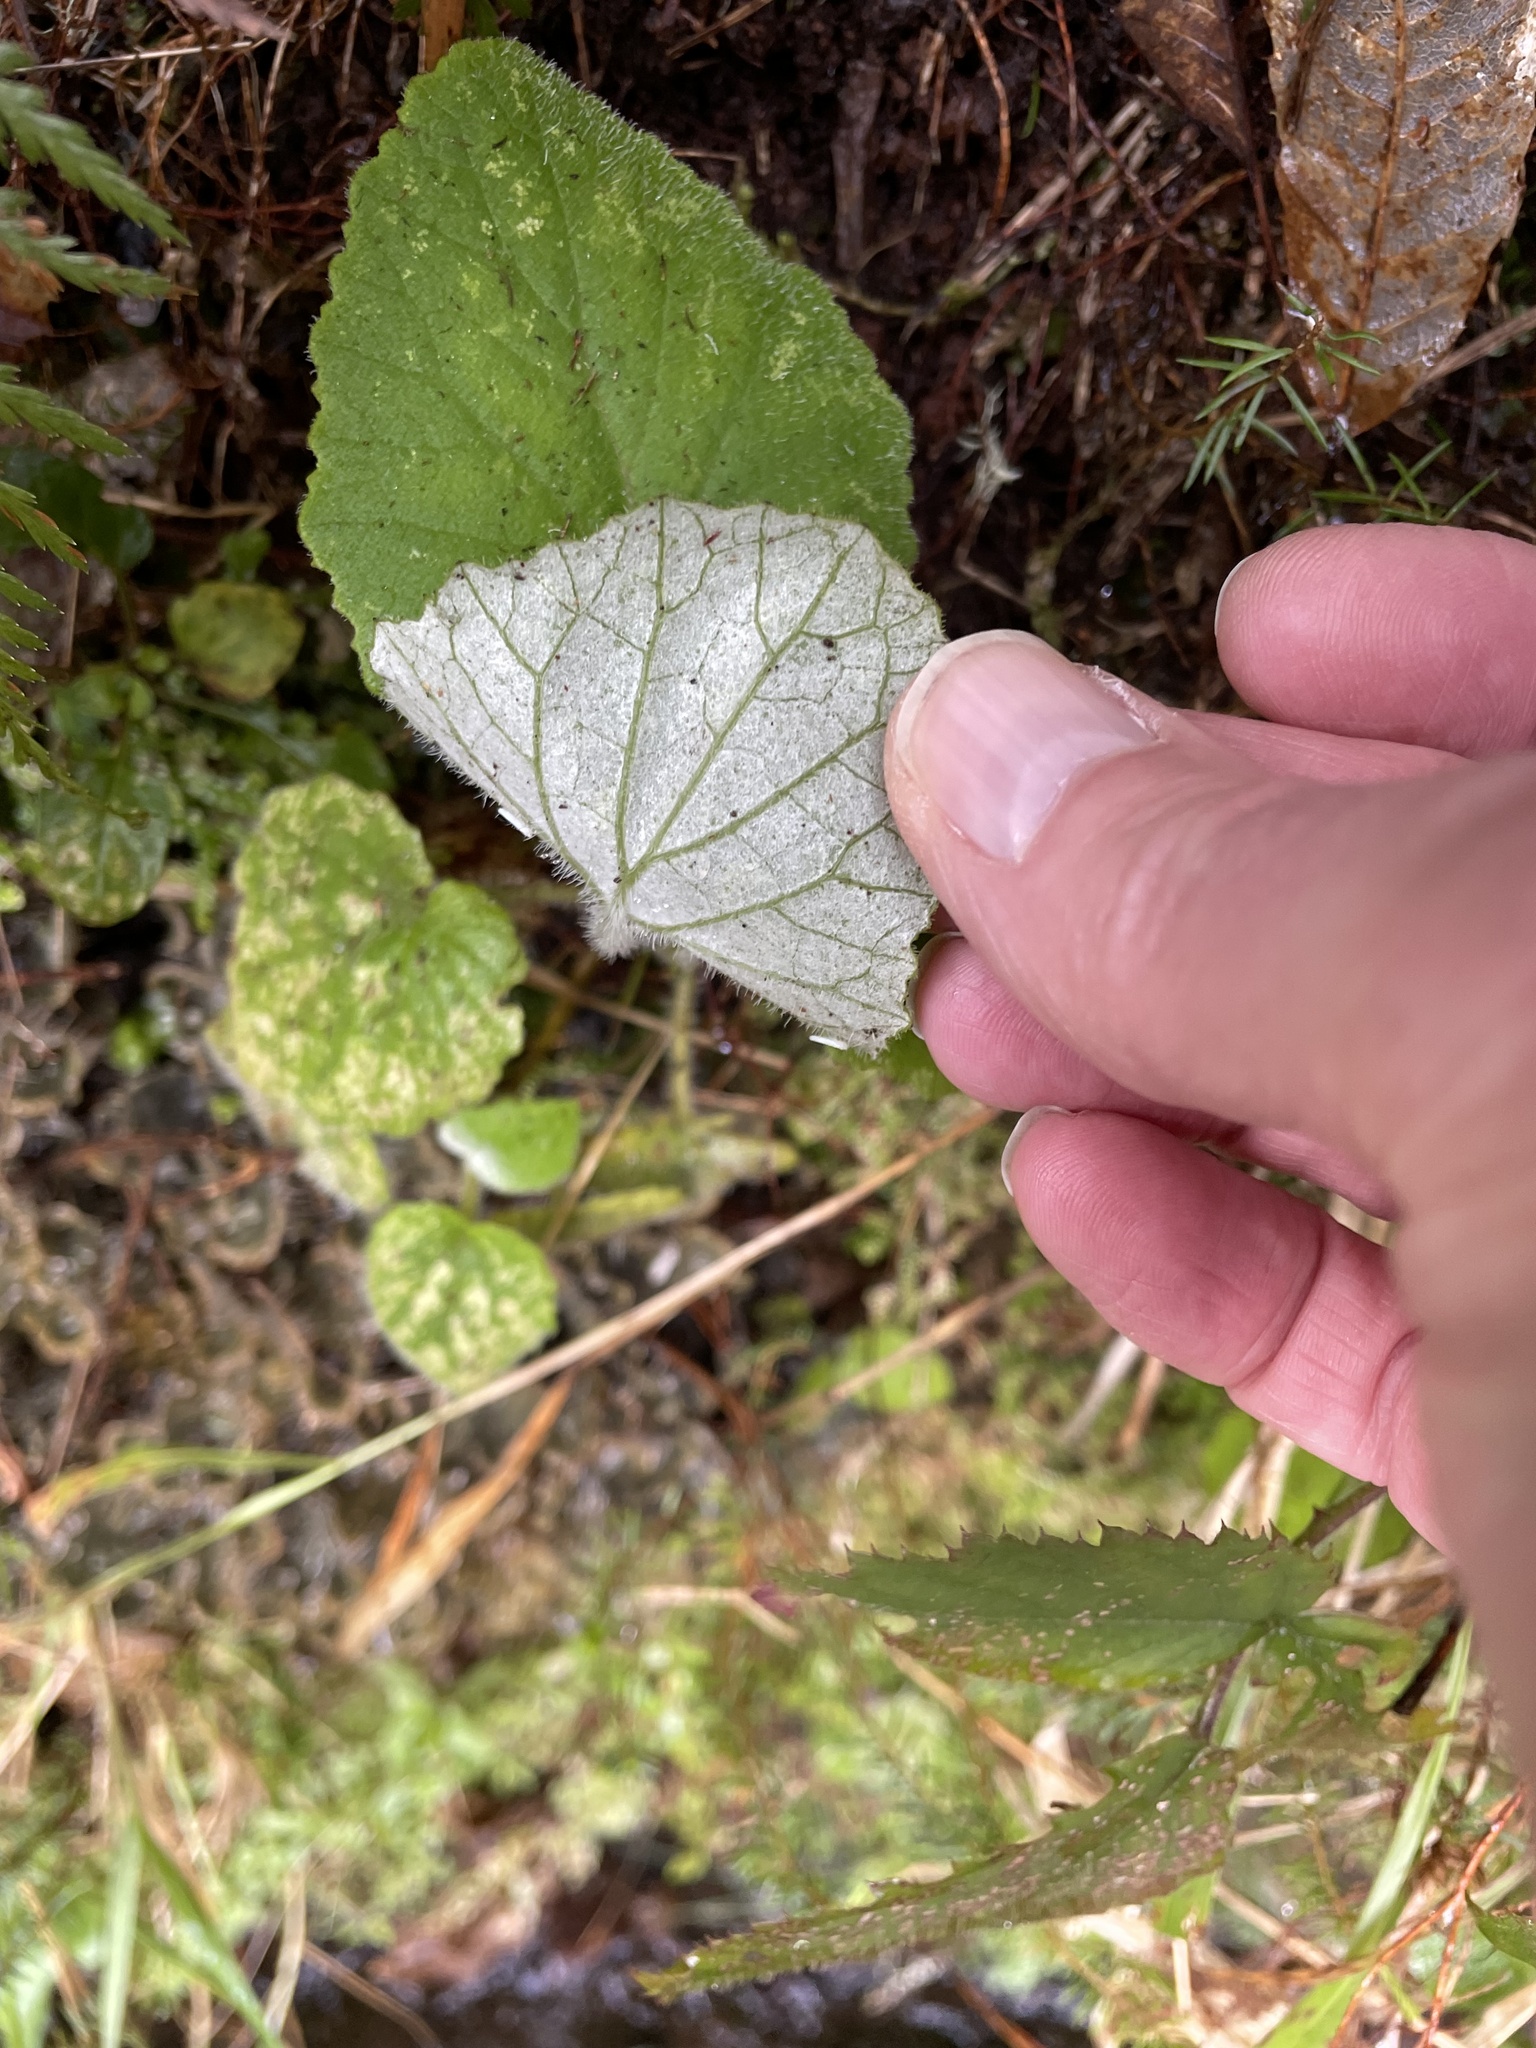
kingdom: Plantae
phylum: Tracheophyta
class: Magnoliopsida
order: Asterales
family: Asteraceae
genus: Pericallis
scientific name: Pericallis aurita
